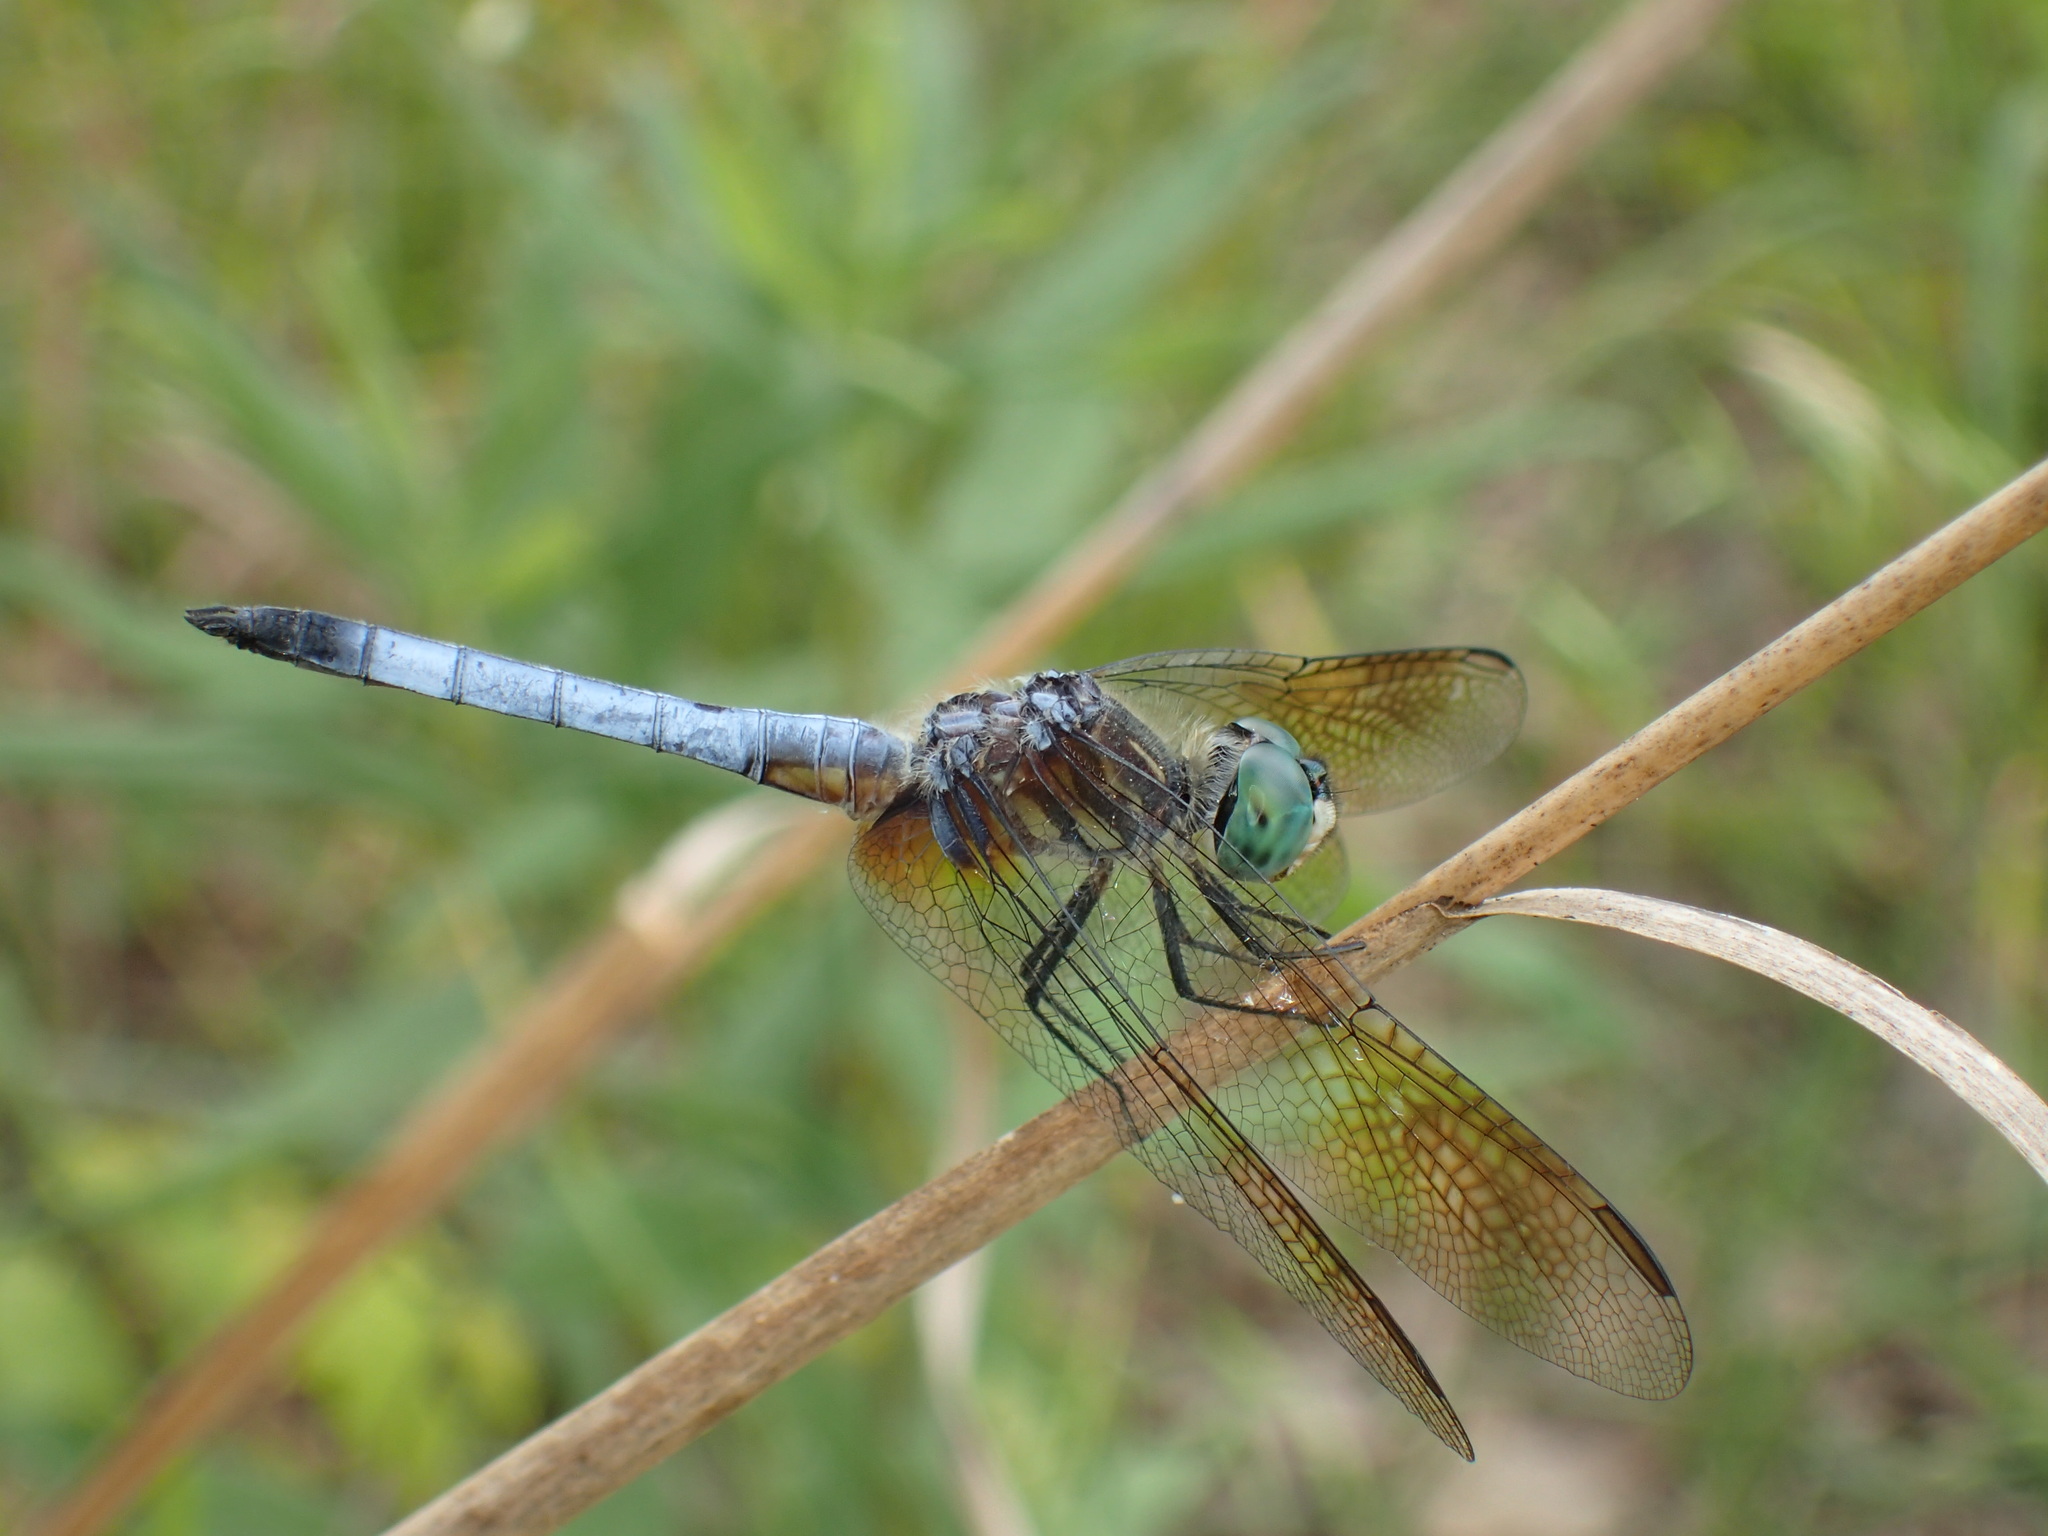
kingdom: Animalia
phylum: Arthropoda
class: Insecta
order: Odonata
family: Libellulidae
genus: Pachydiplax
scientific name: Pachydiplax longipennis
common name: Blue dasher
